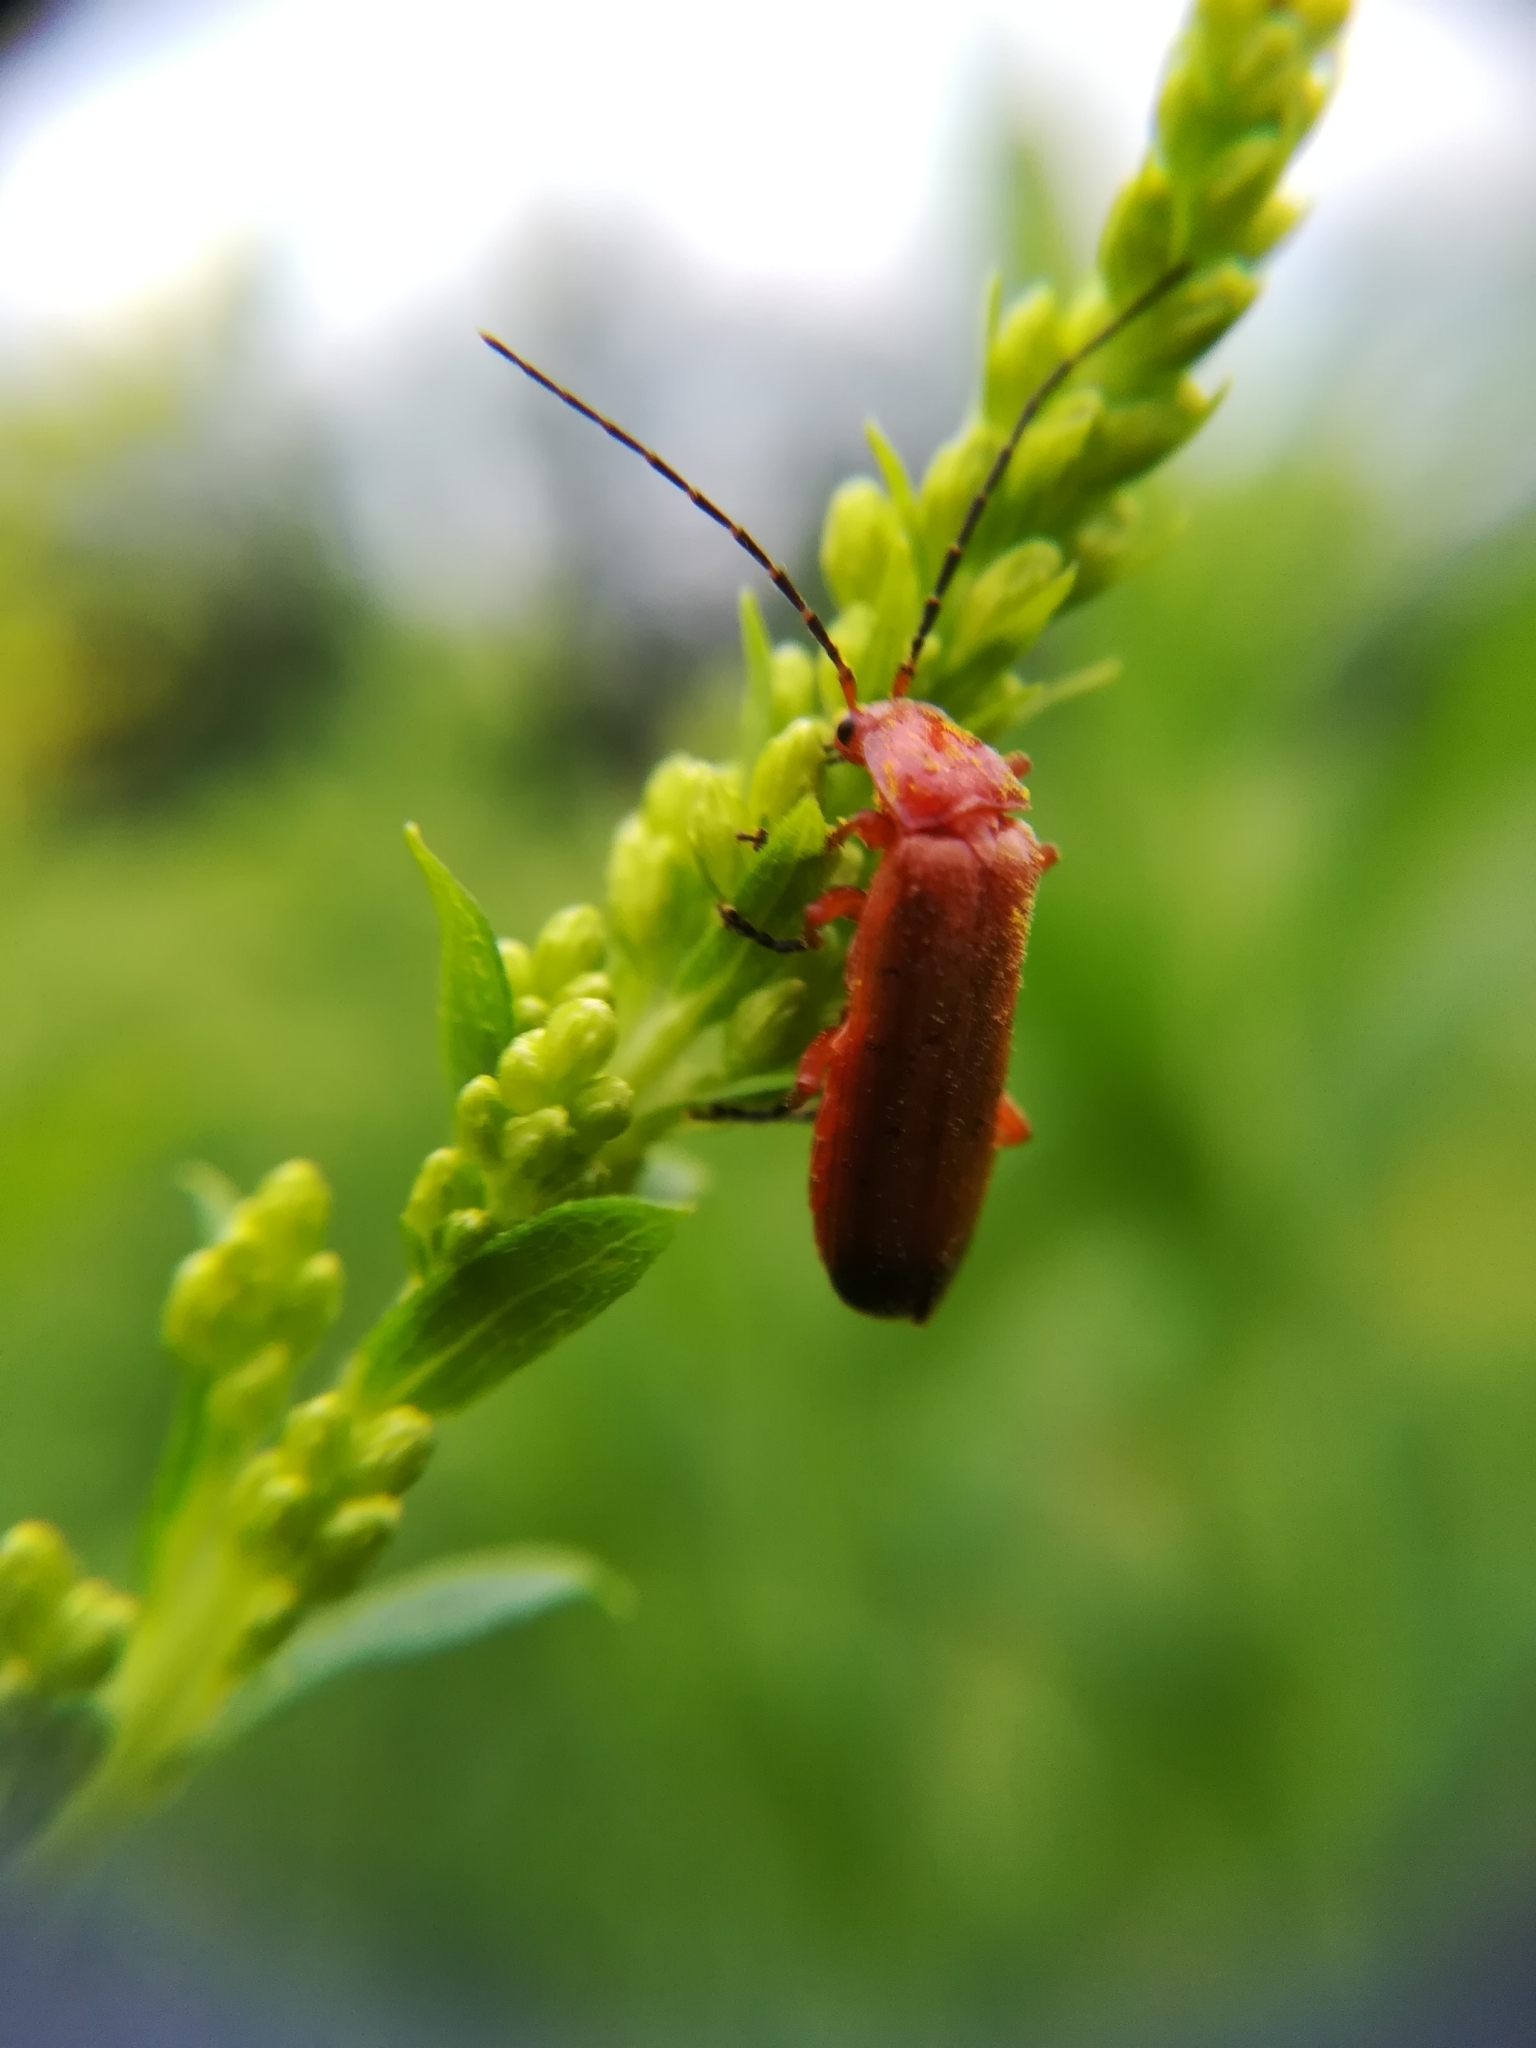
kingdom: Animalia
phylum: Arthropoda
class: Insecta
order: Coleoptera
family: Cantharidae
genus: Rhagonycha
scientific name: Rhagonycha fulva
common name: Common red soldier beetle
